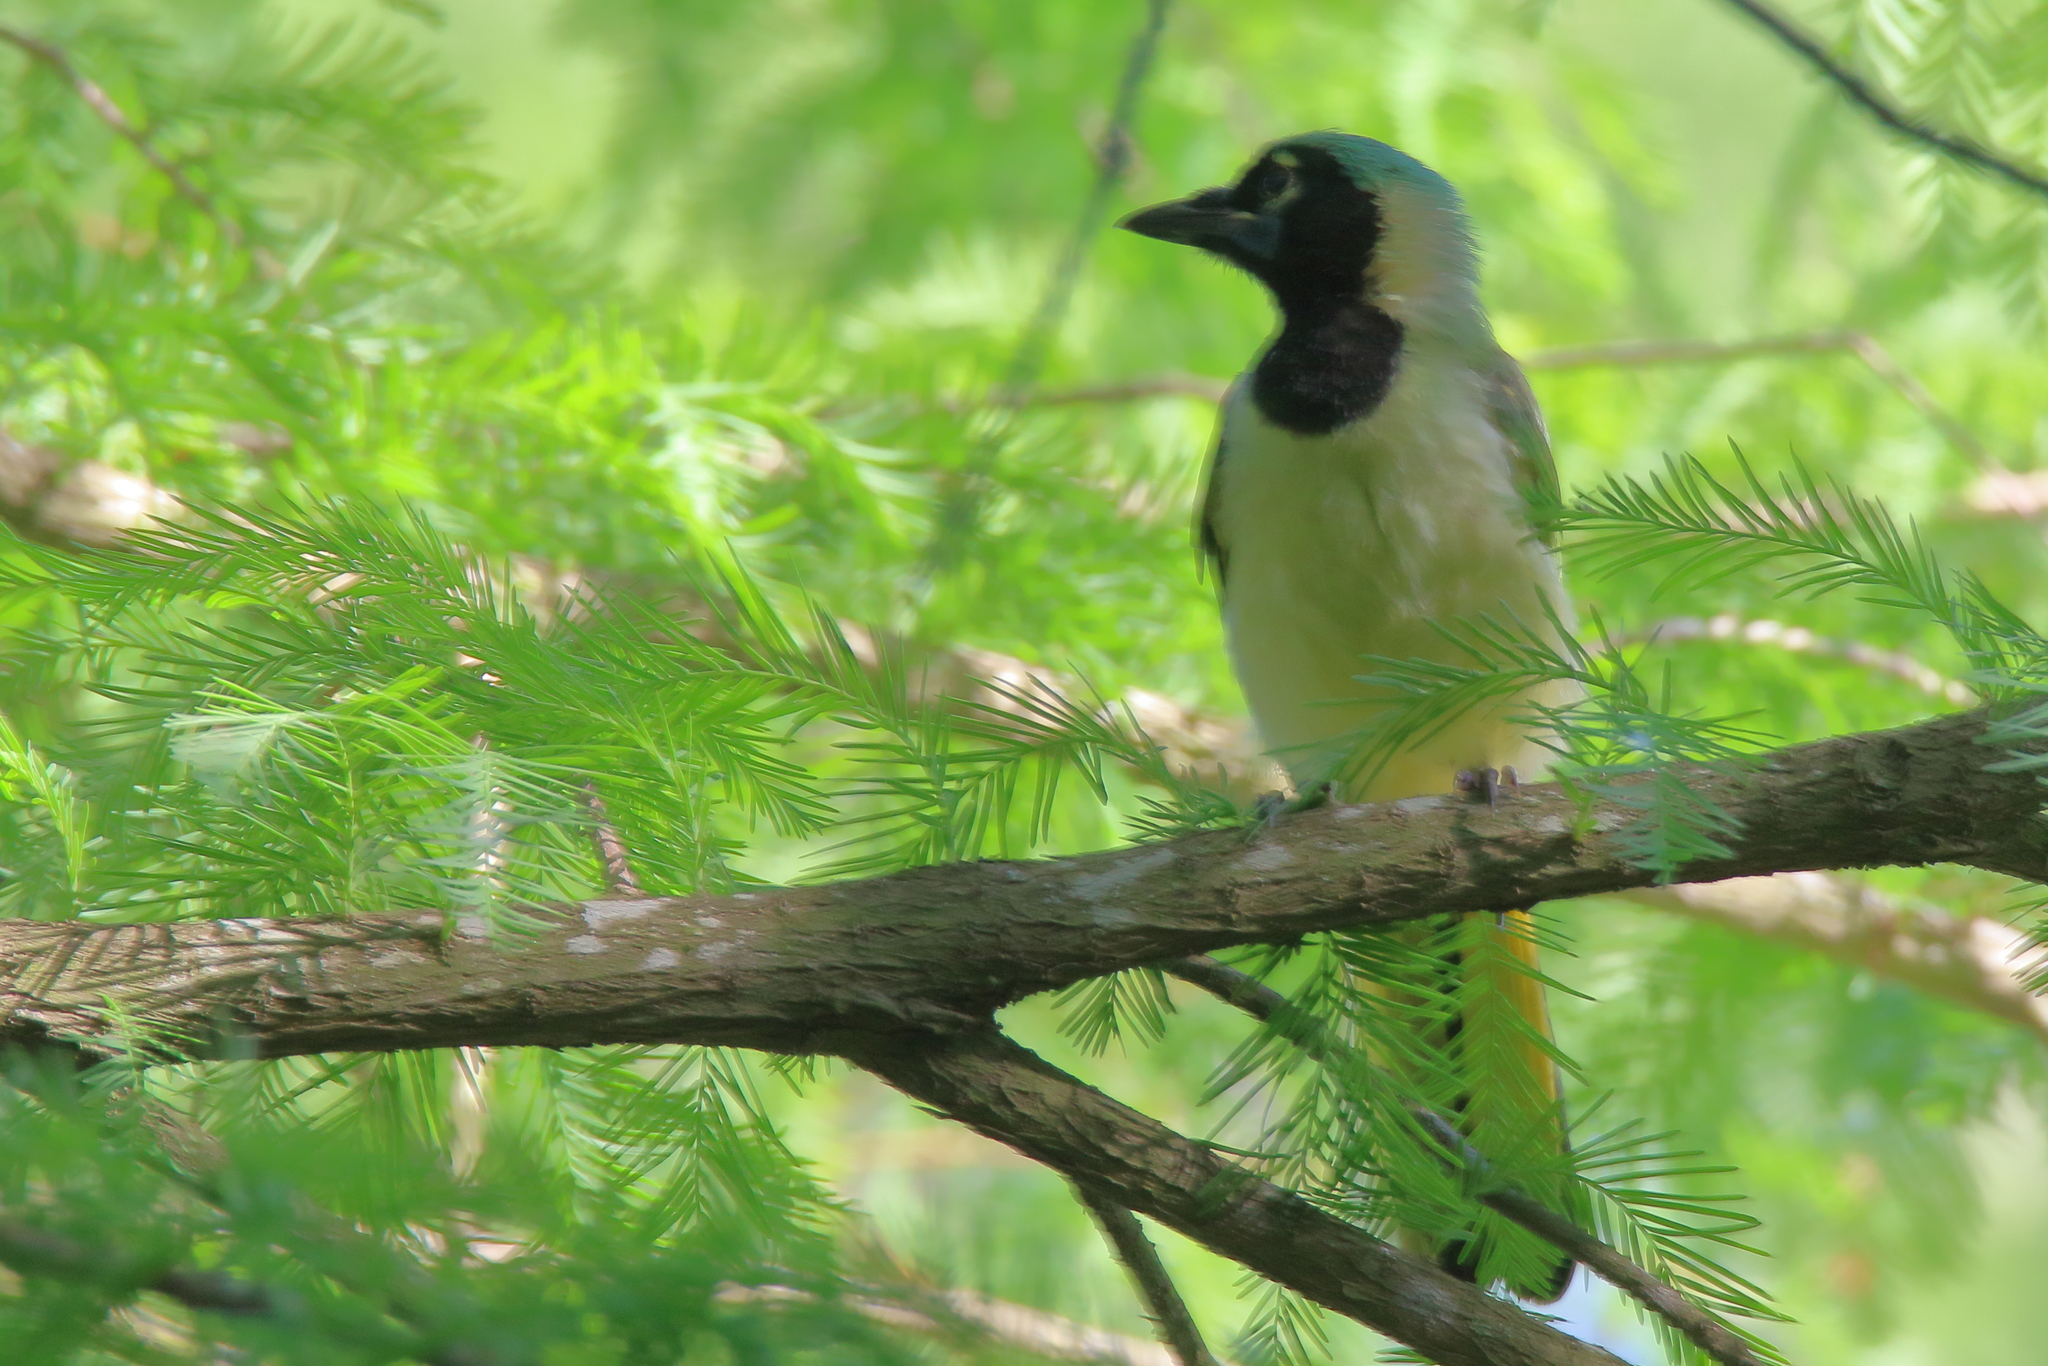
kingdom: Animalia
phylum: Chordata
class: Aves
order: Passeriformes
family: Corvidae
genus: Cyanocorax
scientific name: Cyanocorax yncas
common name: Green jay
